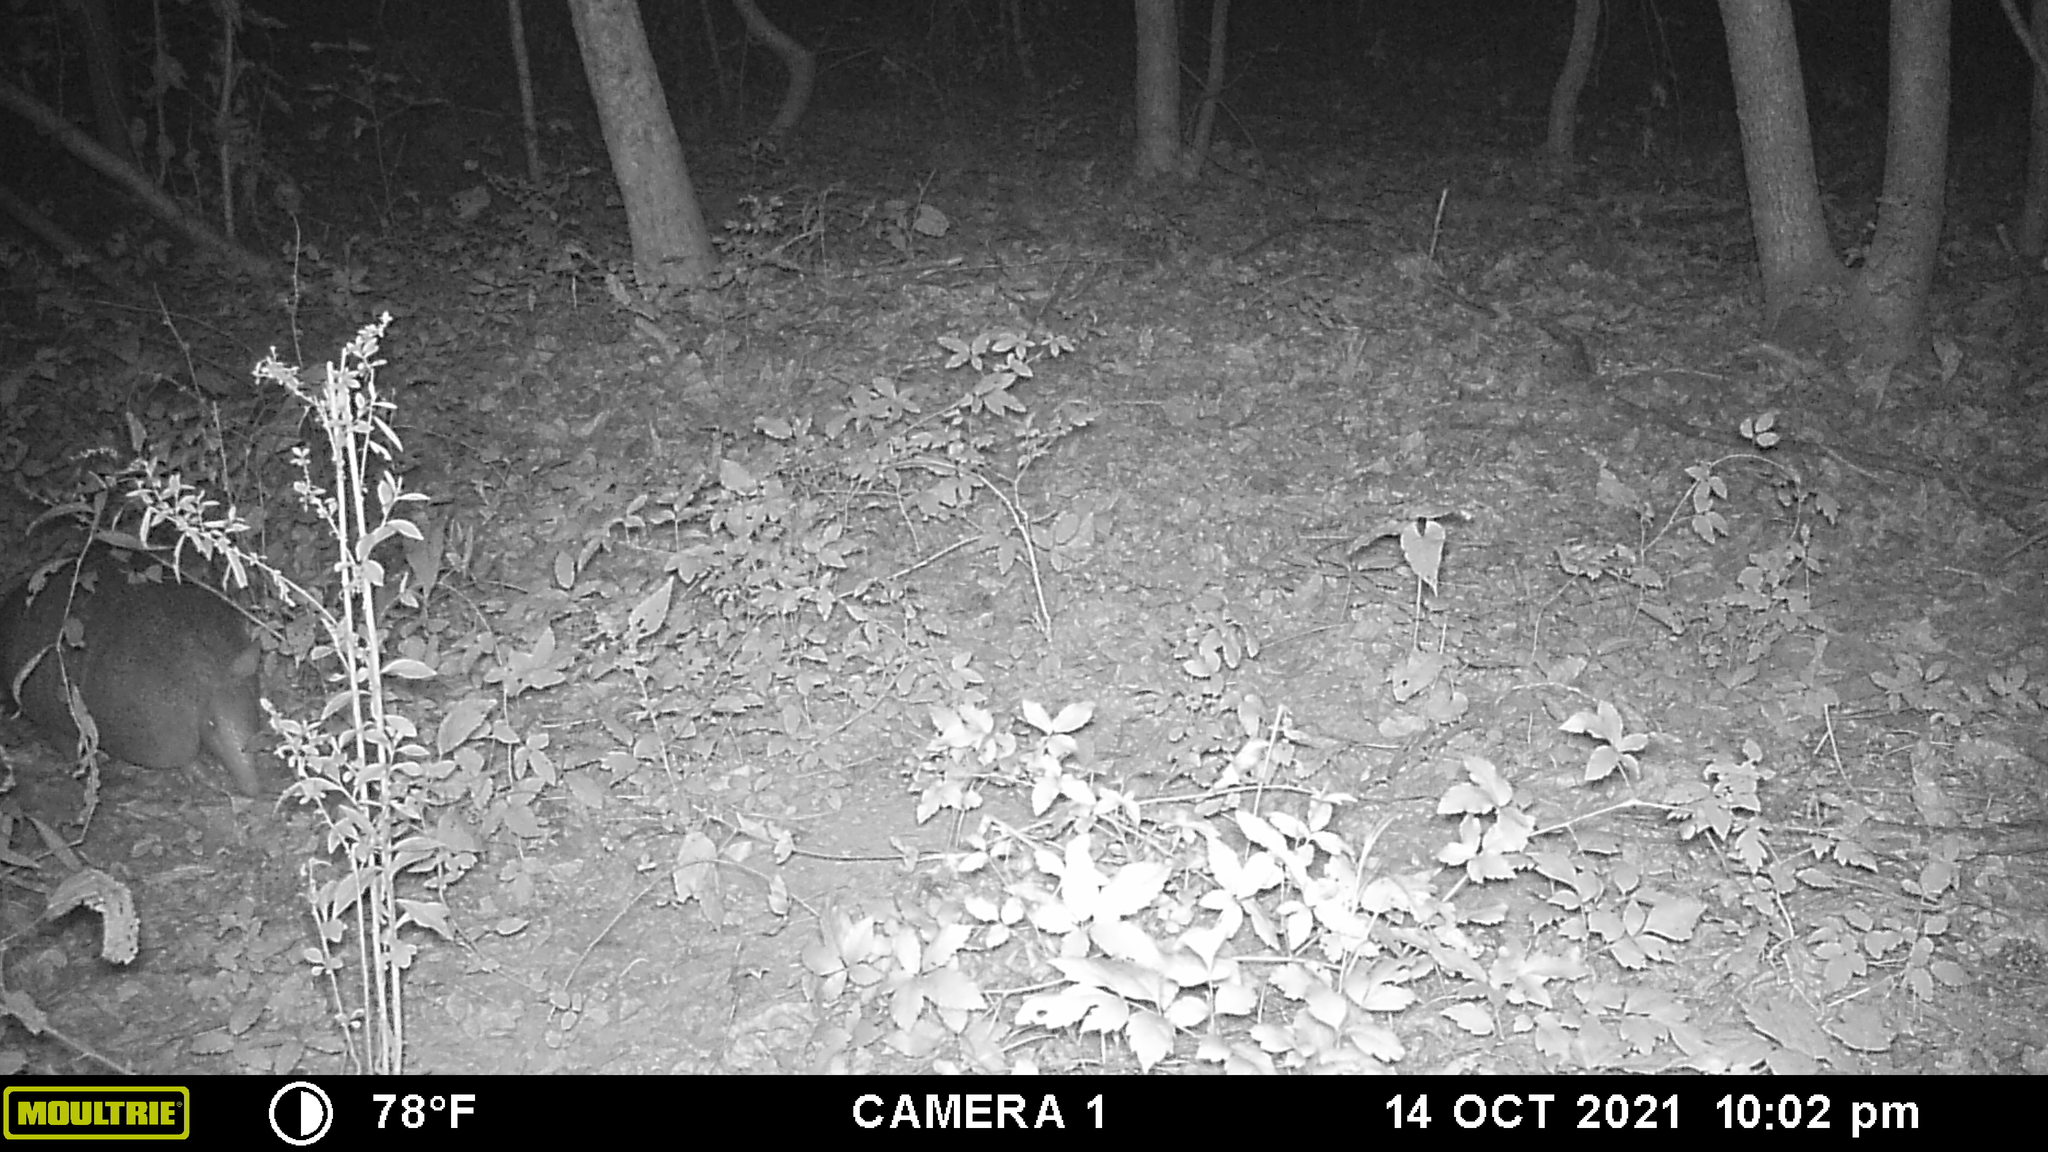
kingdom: Animalia
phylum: Chordata
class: Mammalia
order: Cingulata
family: Dasypodidae
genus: Dasypus
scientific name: Dasypus novemcinctus
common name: Nine-banded armadillo
